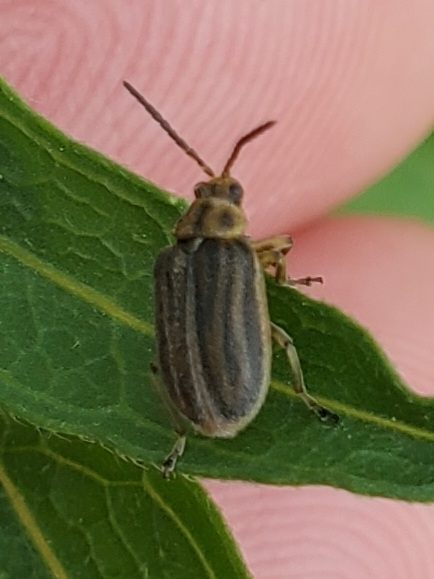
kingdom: Animalia
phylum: Arthropoda
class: Insecta
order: Coleoptera
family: Chrysomelidae
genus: Ophraella
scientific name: Ophraella communa
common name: Ragweed leaf beetle
